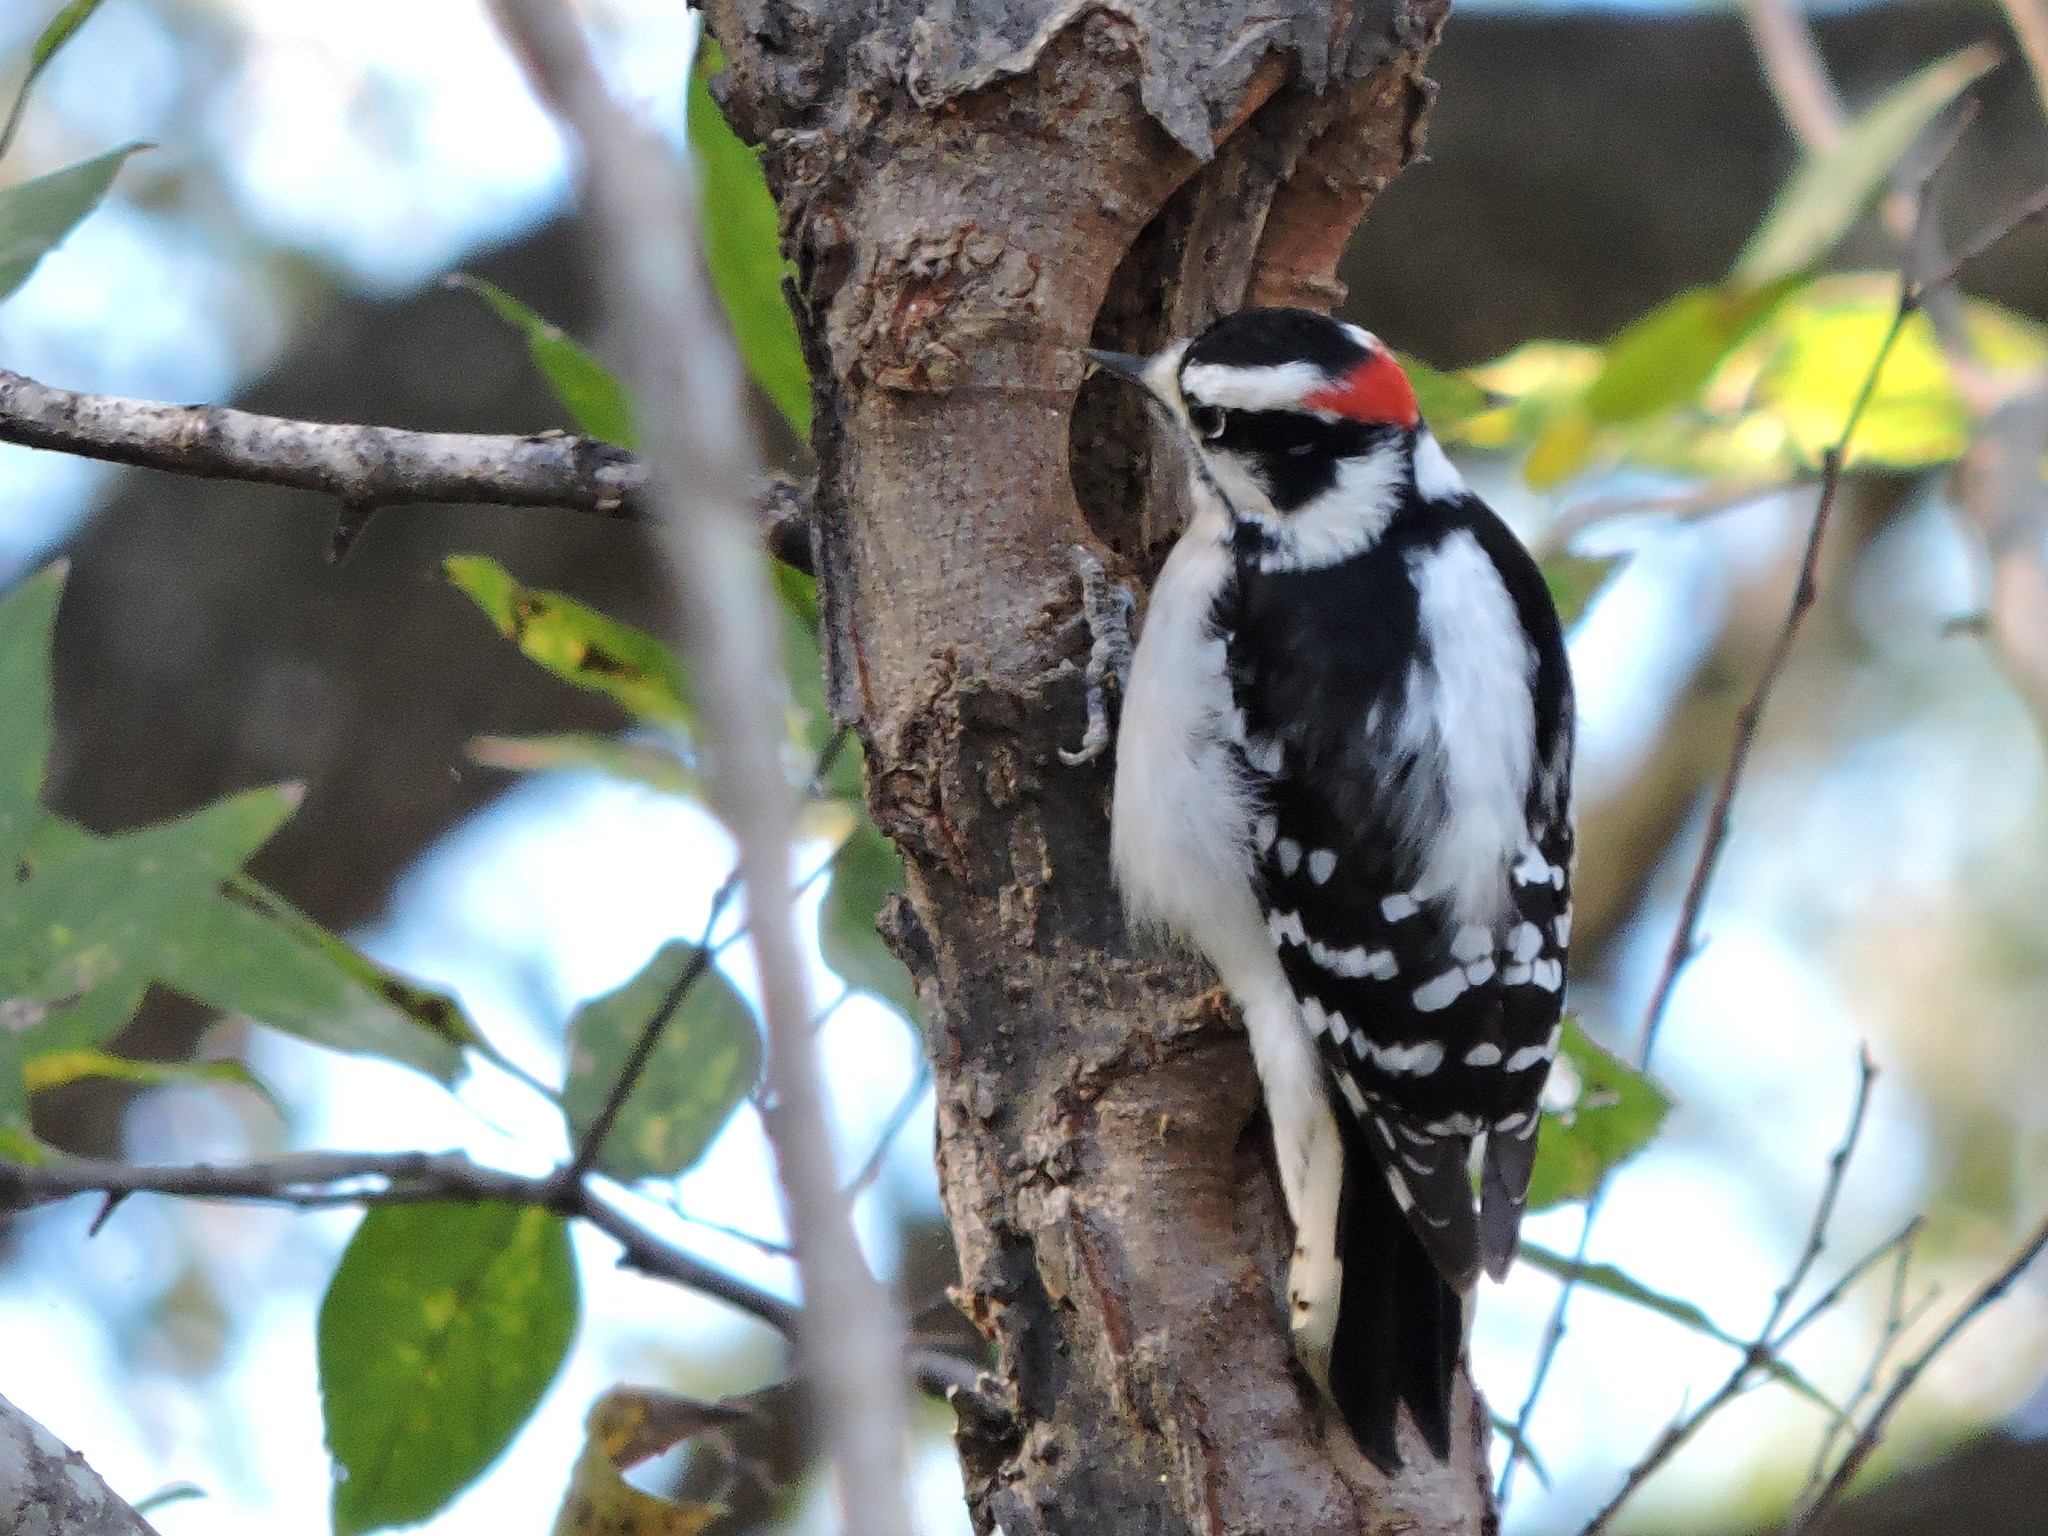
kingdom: Animalia
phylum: Chordata
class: Aves
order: Piciformes
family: Picidae
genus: Dryobates
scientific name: Dryobates pubescens
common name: Downy woodpecker
